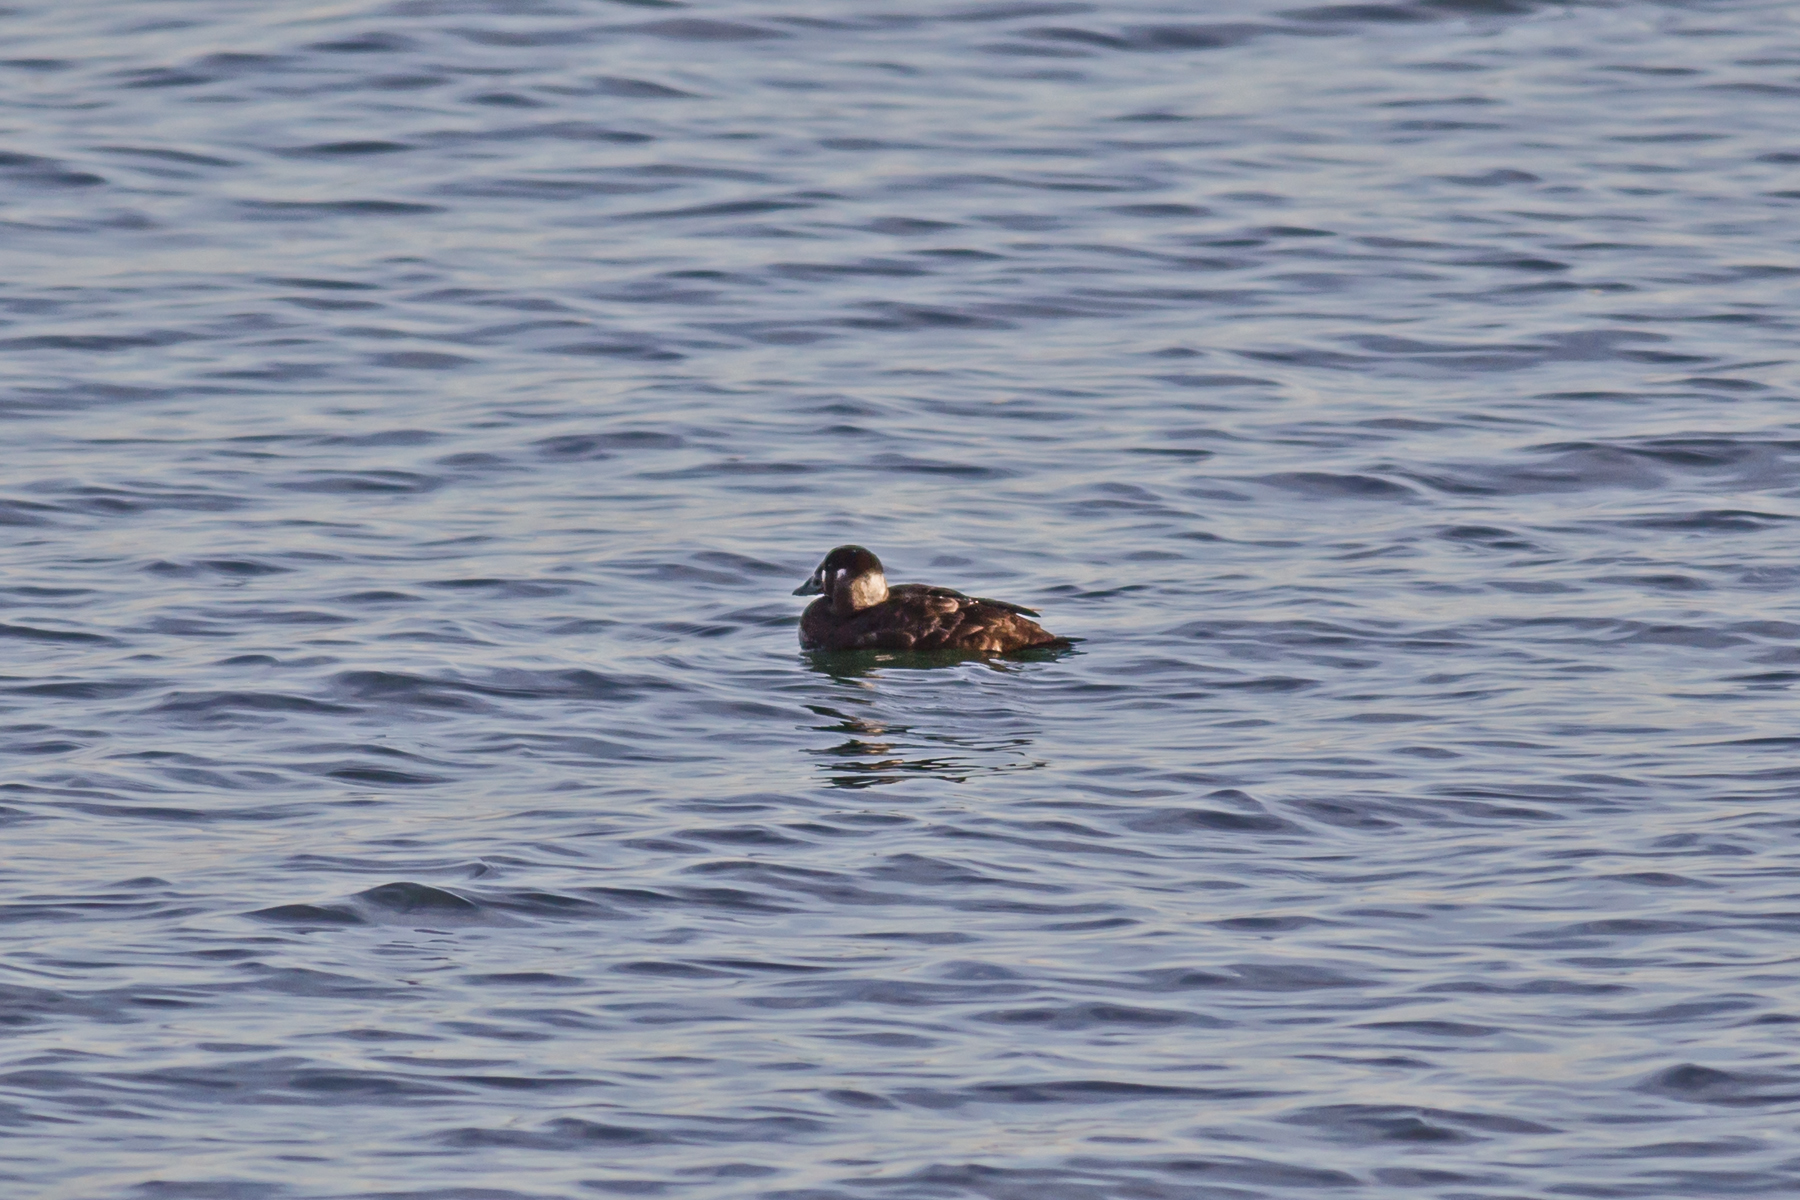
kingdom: Animalia
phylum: Chordata
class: Aves
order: Anseriformes
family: Anatidae
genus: Melanitta
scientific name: Melanitta perspicillata
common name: Surf scoter
